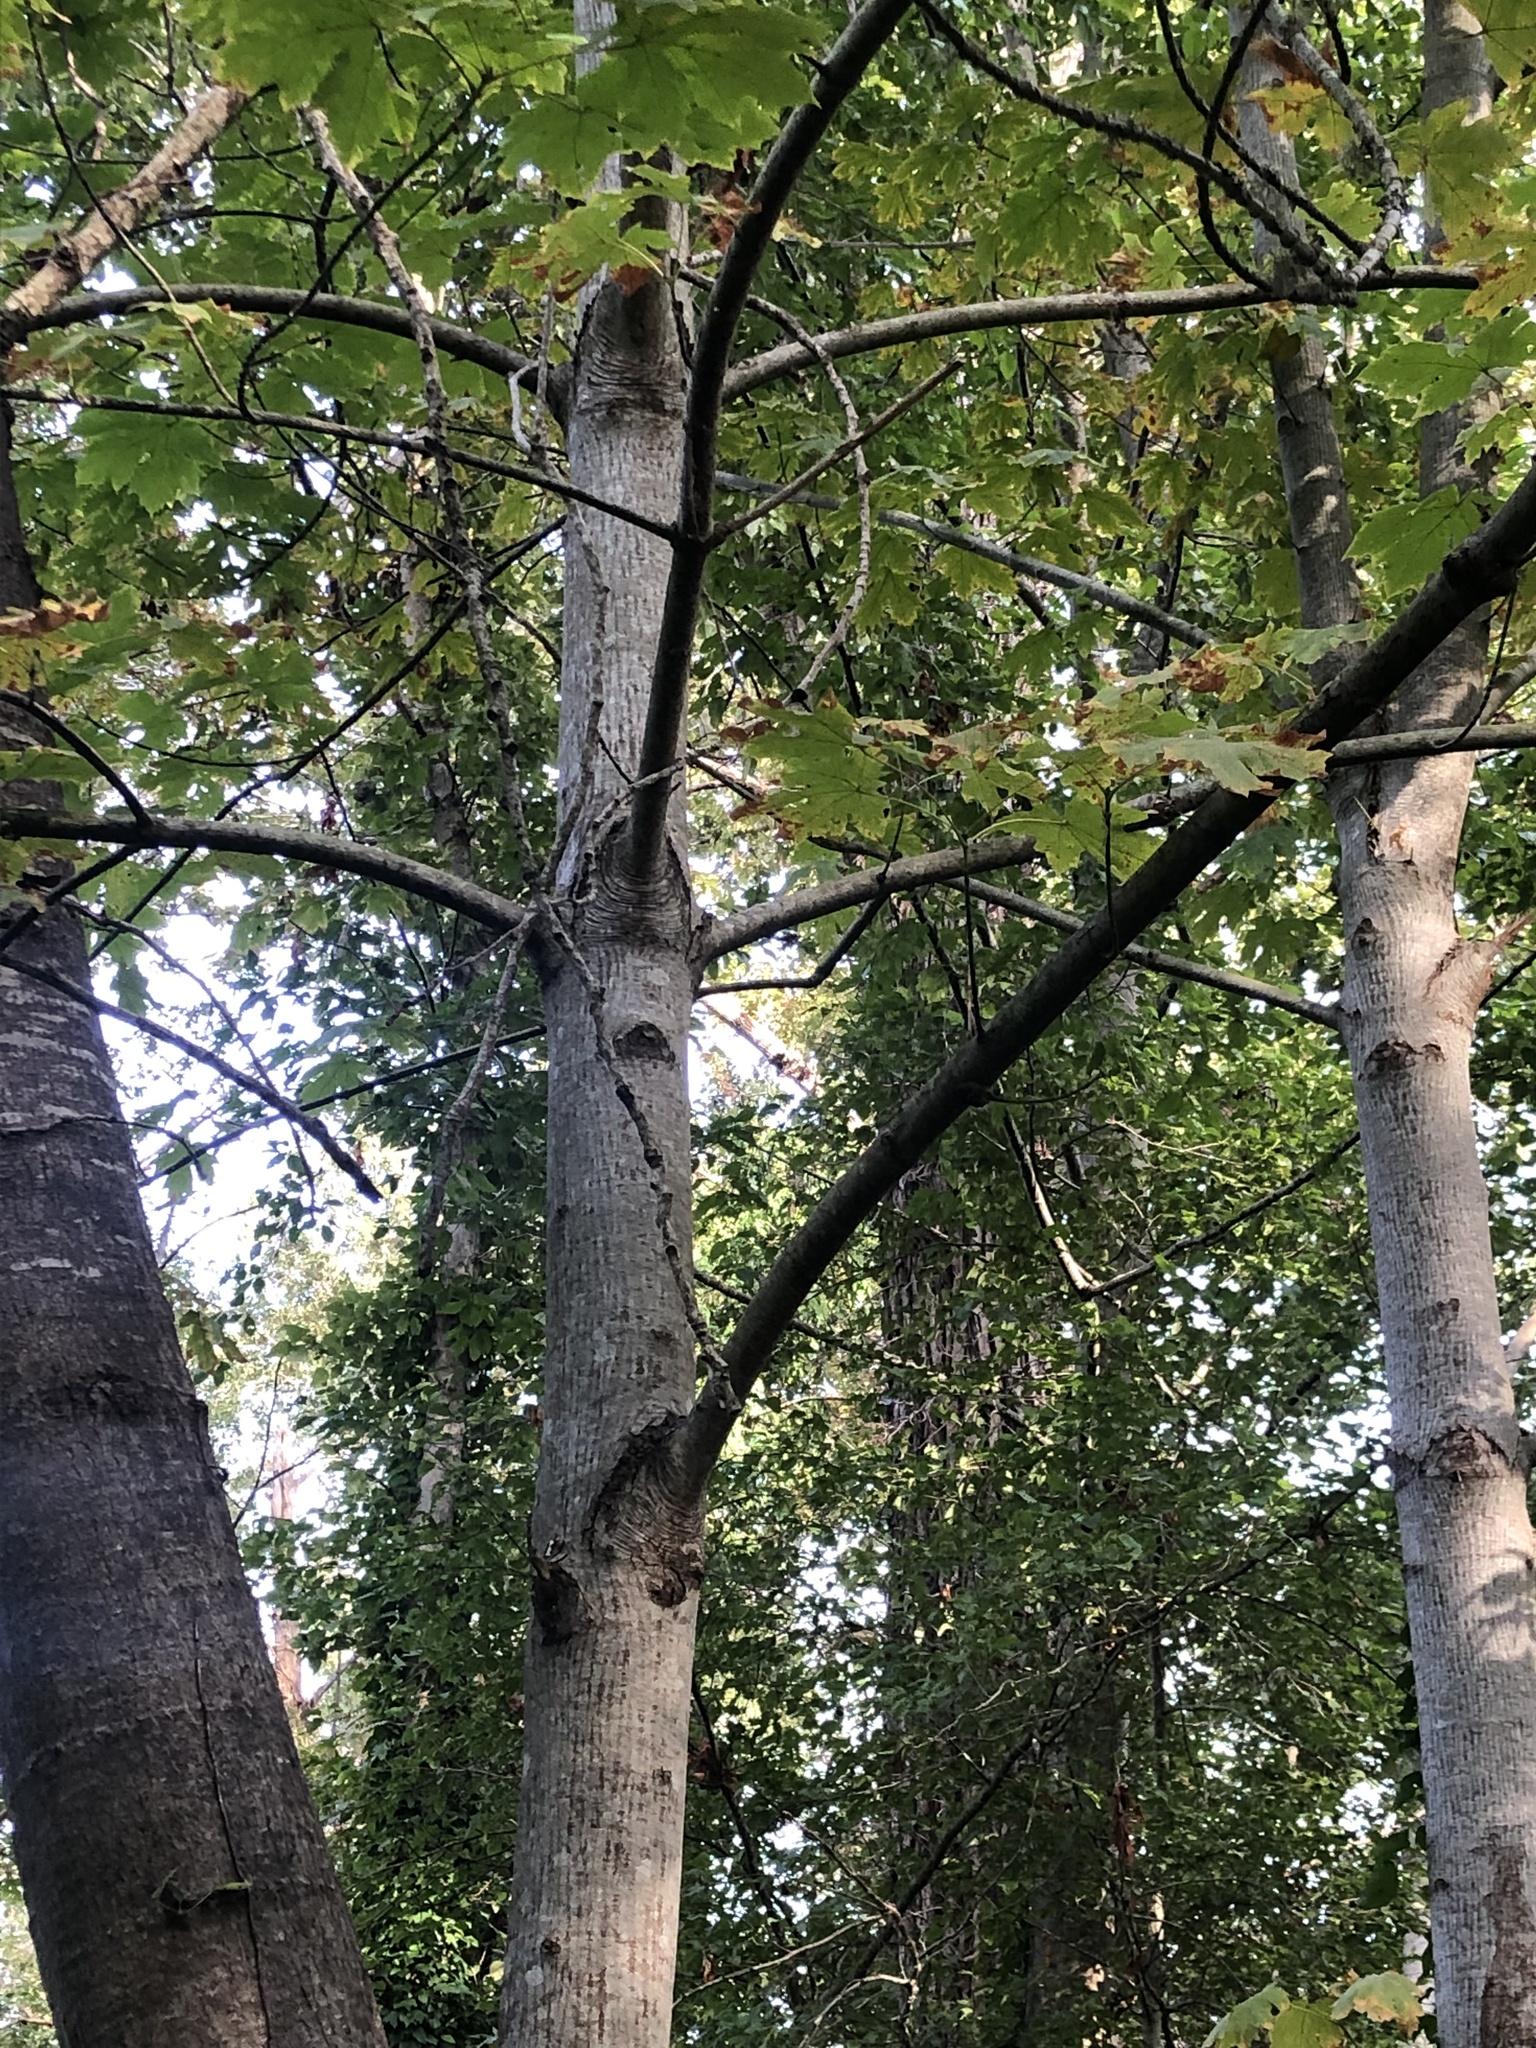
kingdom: Plantae
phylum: Tracheophyta
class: Magnoliopsida
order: Sapindales
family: Sapindaceae
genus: Acer
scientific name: Acer macrophyllum
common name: Oregon maple
